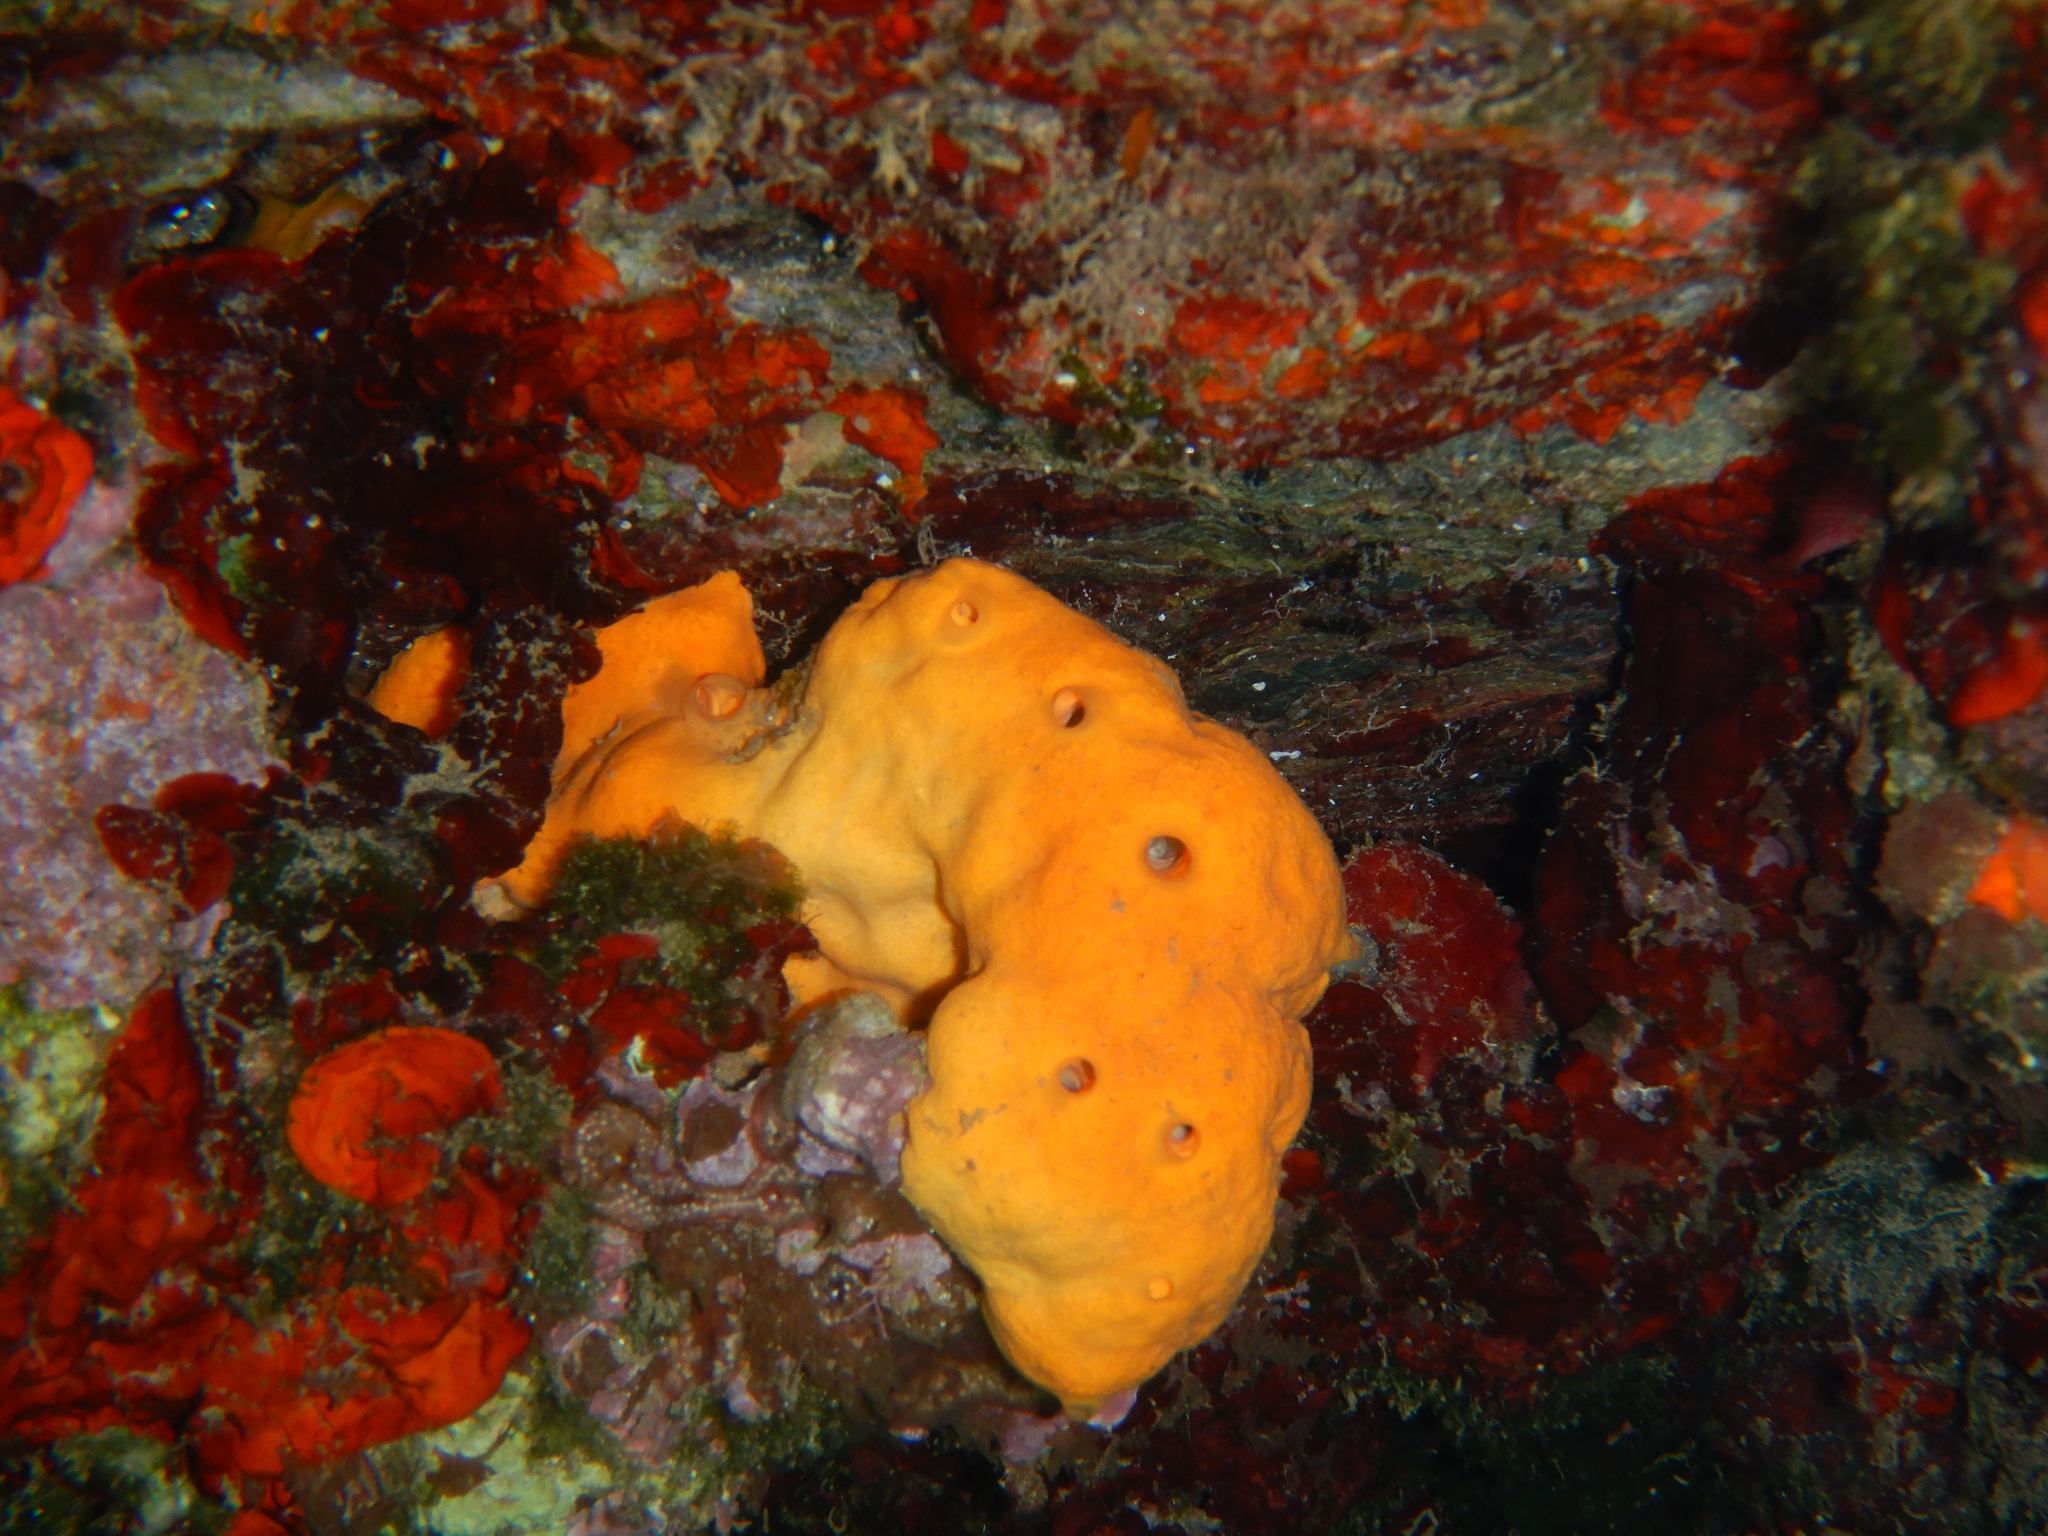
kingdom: Animalia
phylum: Porifera
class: Demospongiae
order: Agelasida
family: Agelasidae
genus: Agelas
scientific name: Agelas oroides
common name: Maltese sponge
